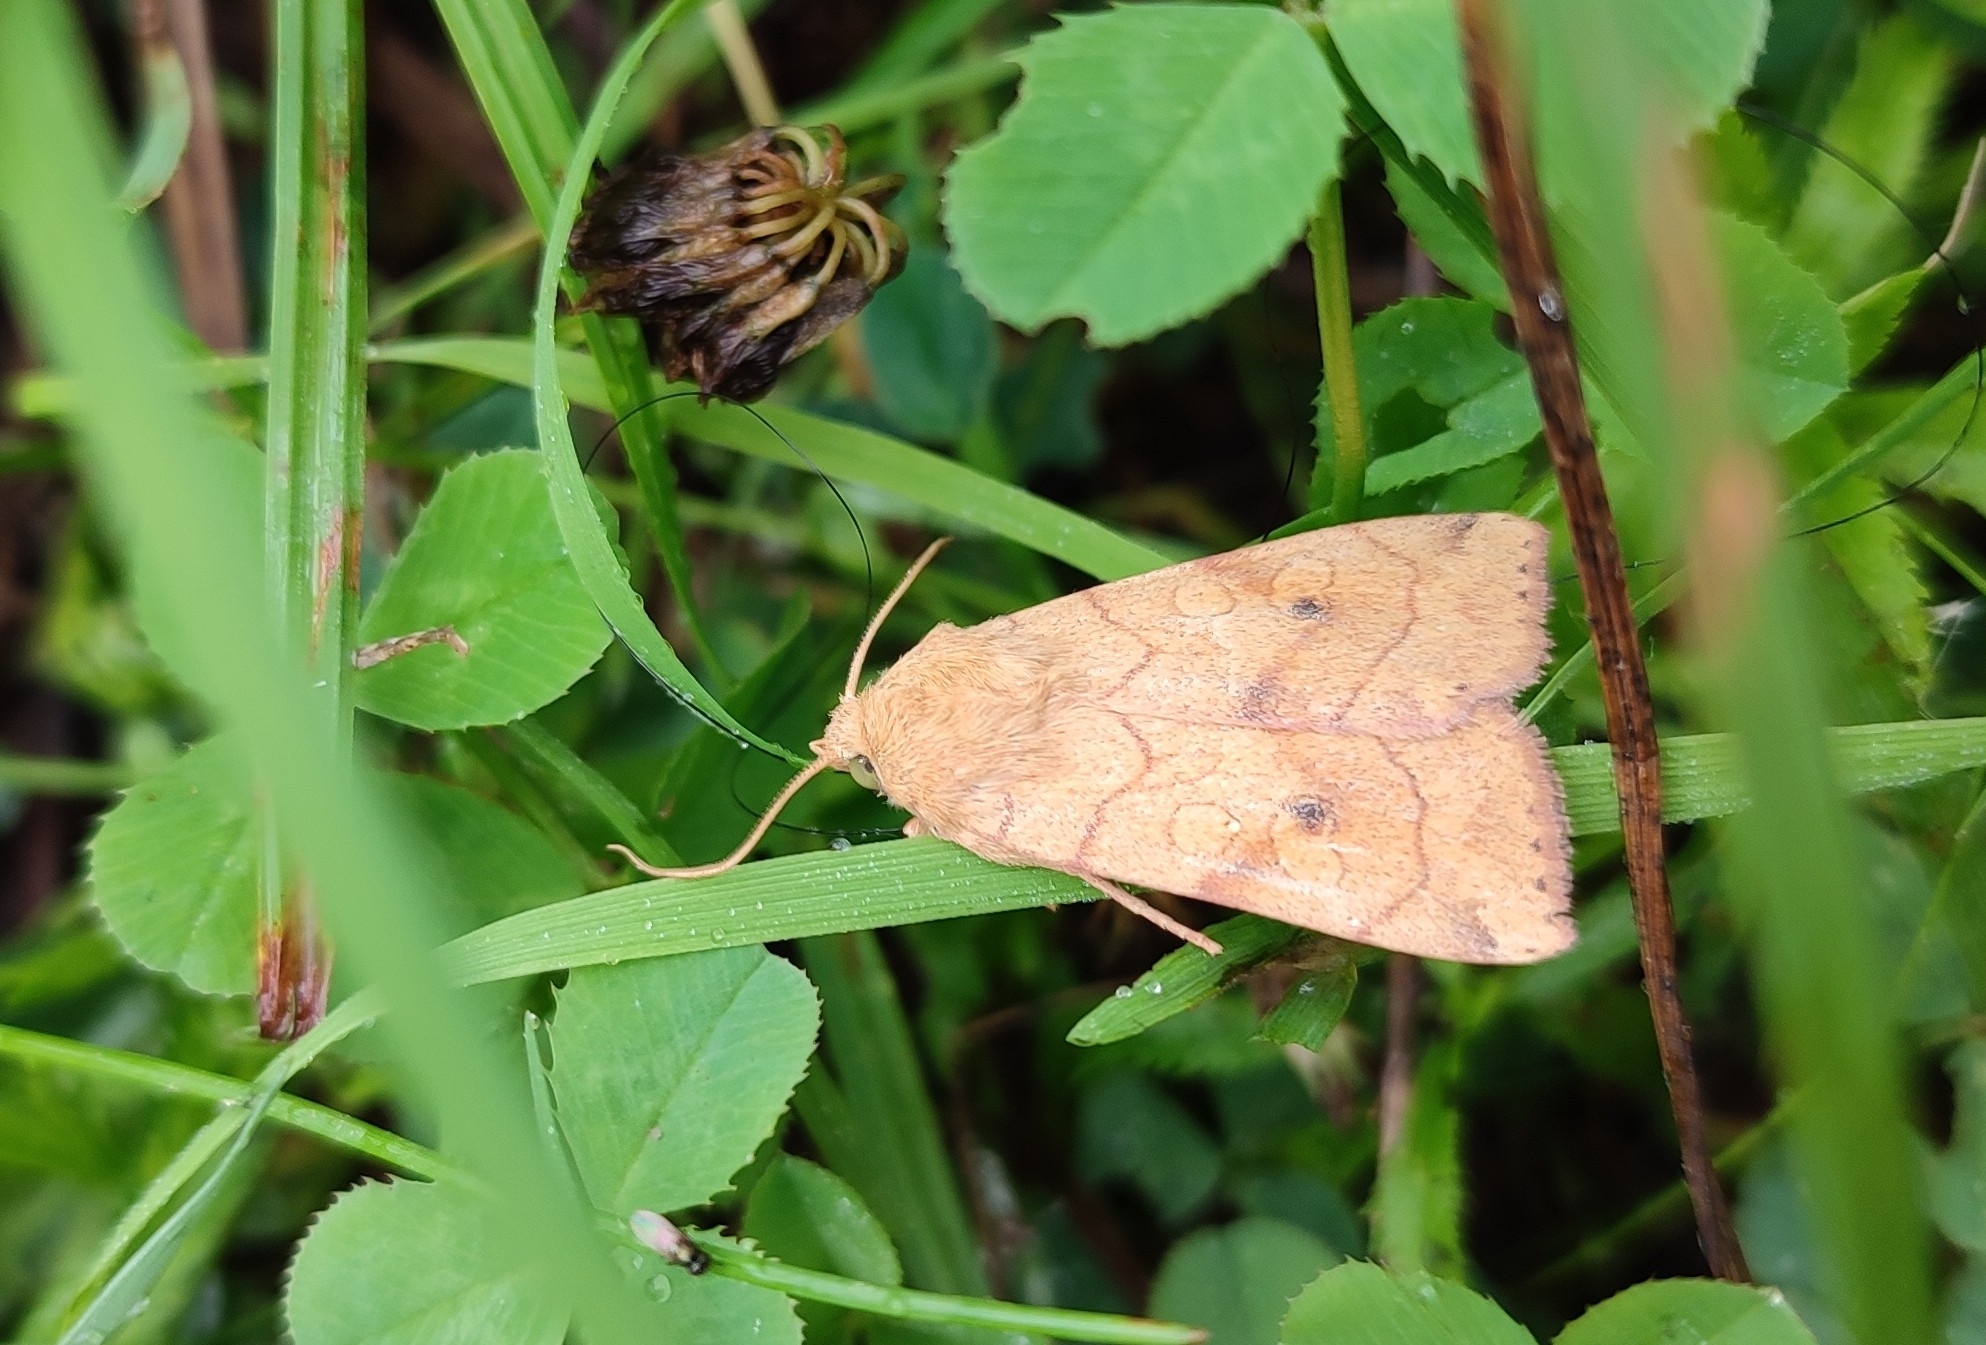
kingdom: Animalia
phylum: Arthropoda
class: Insecta
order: Lepidoptera
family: Noctuidae
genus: Enargia
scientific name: Enargia paleacea
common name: Angle-striped sallow
